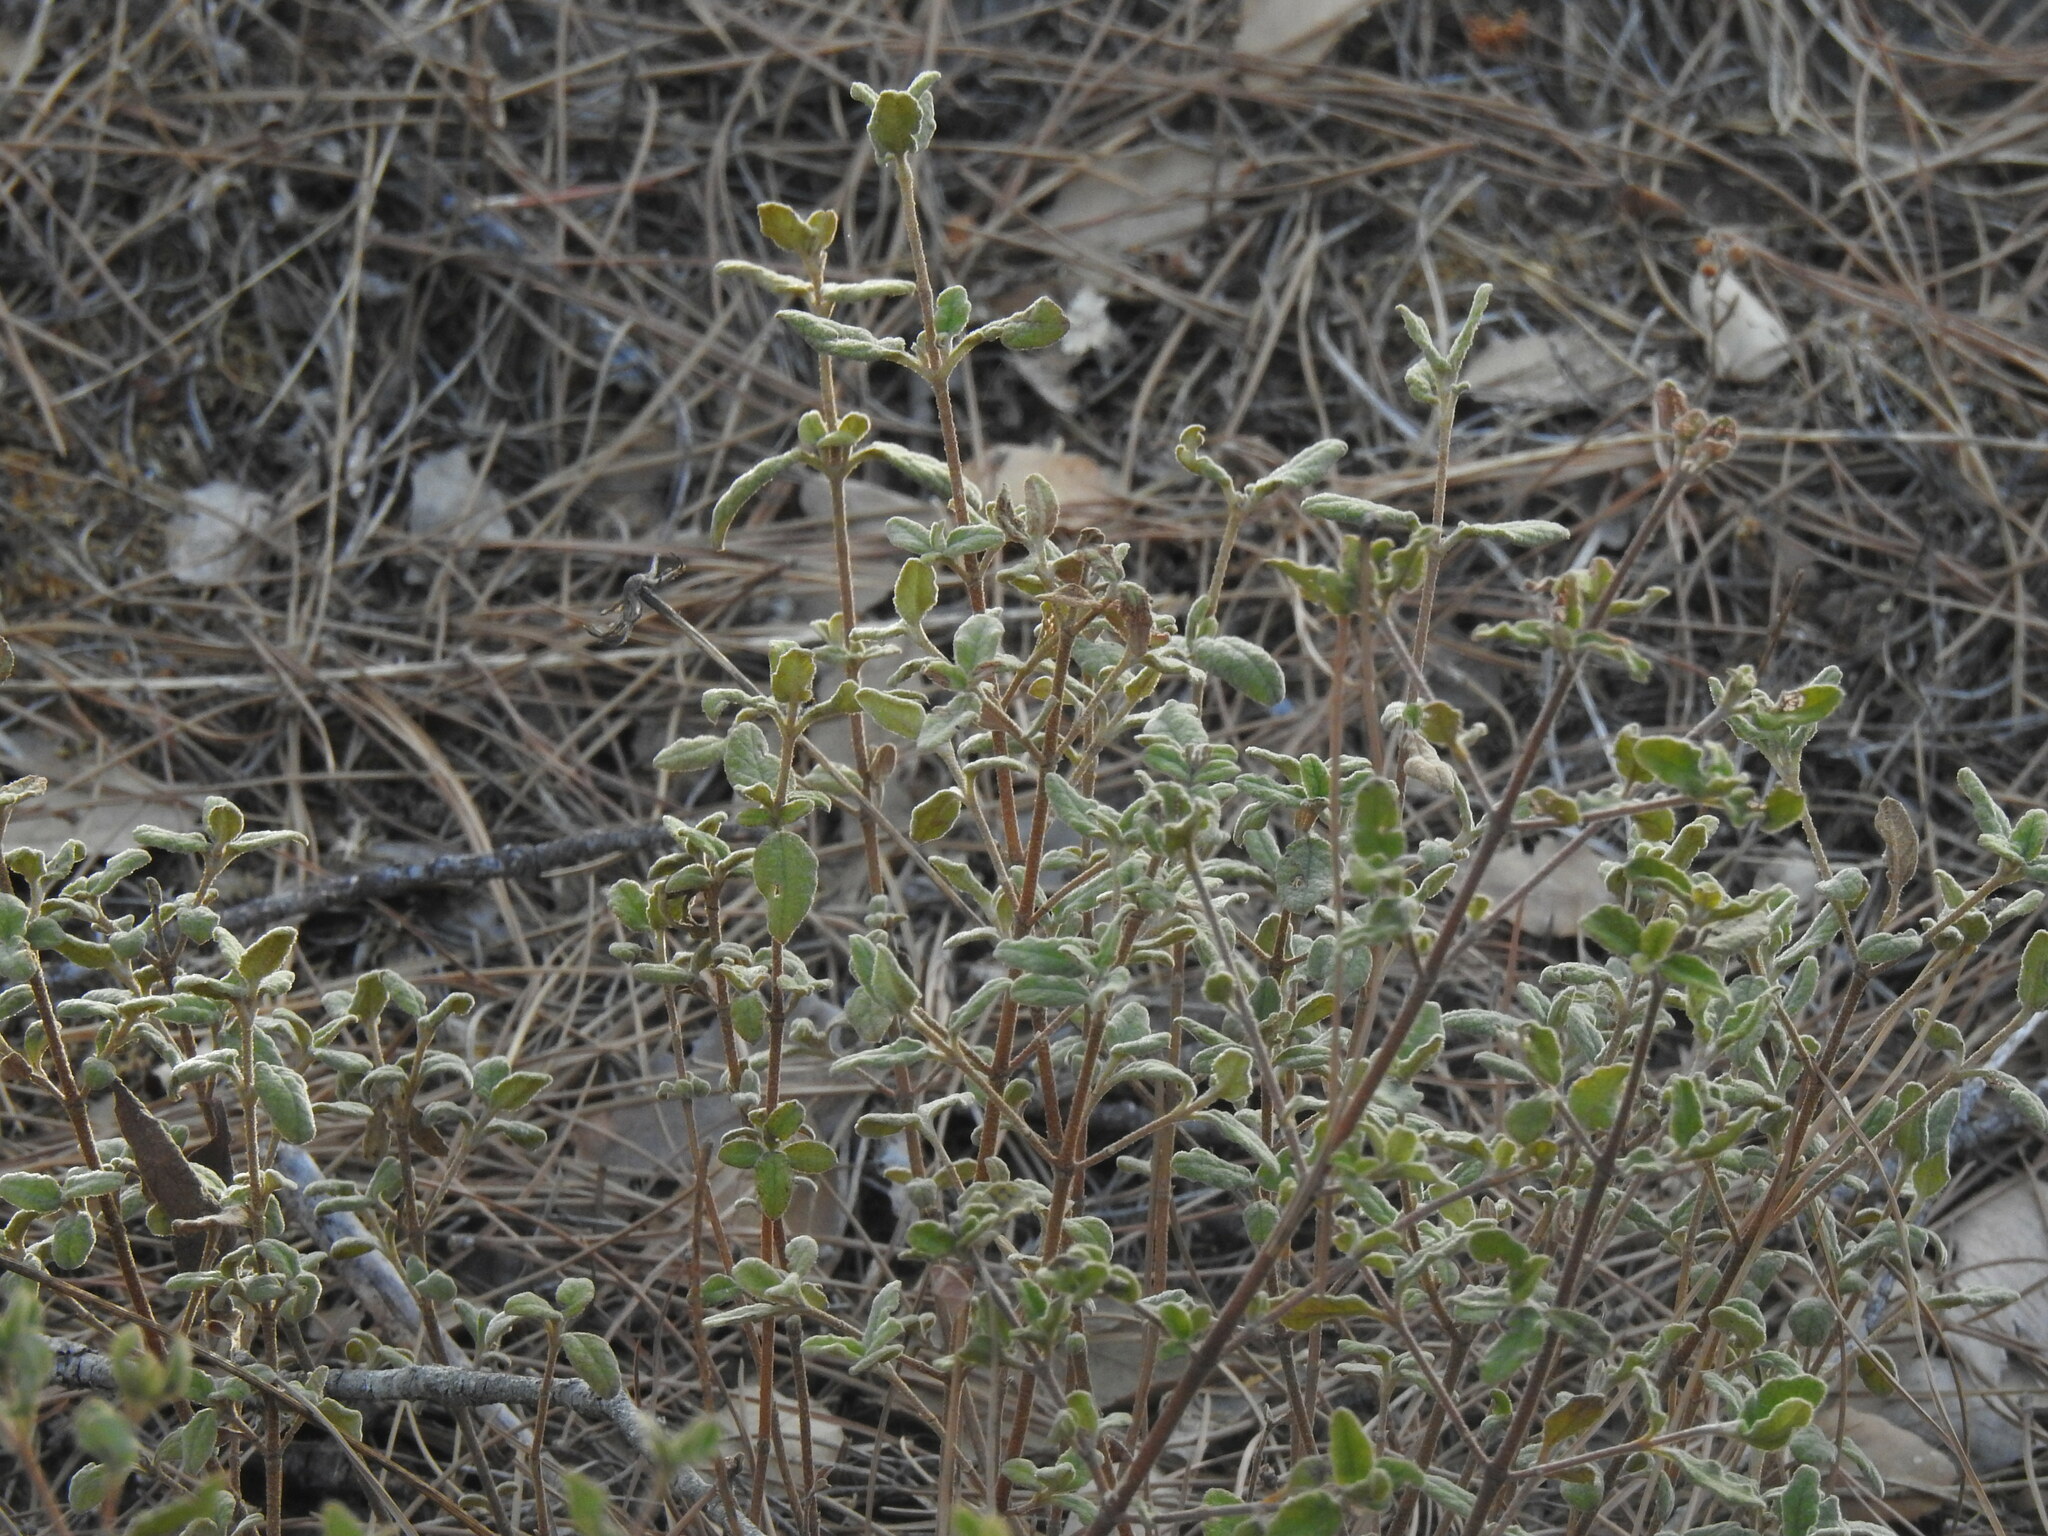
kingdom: Plantae
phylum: Tracheophyta
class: Magnoliopsida
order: Malvales
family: Cistaceae
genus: Cistus
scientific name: Cistus salviifolius
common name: Salvia cistus
